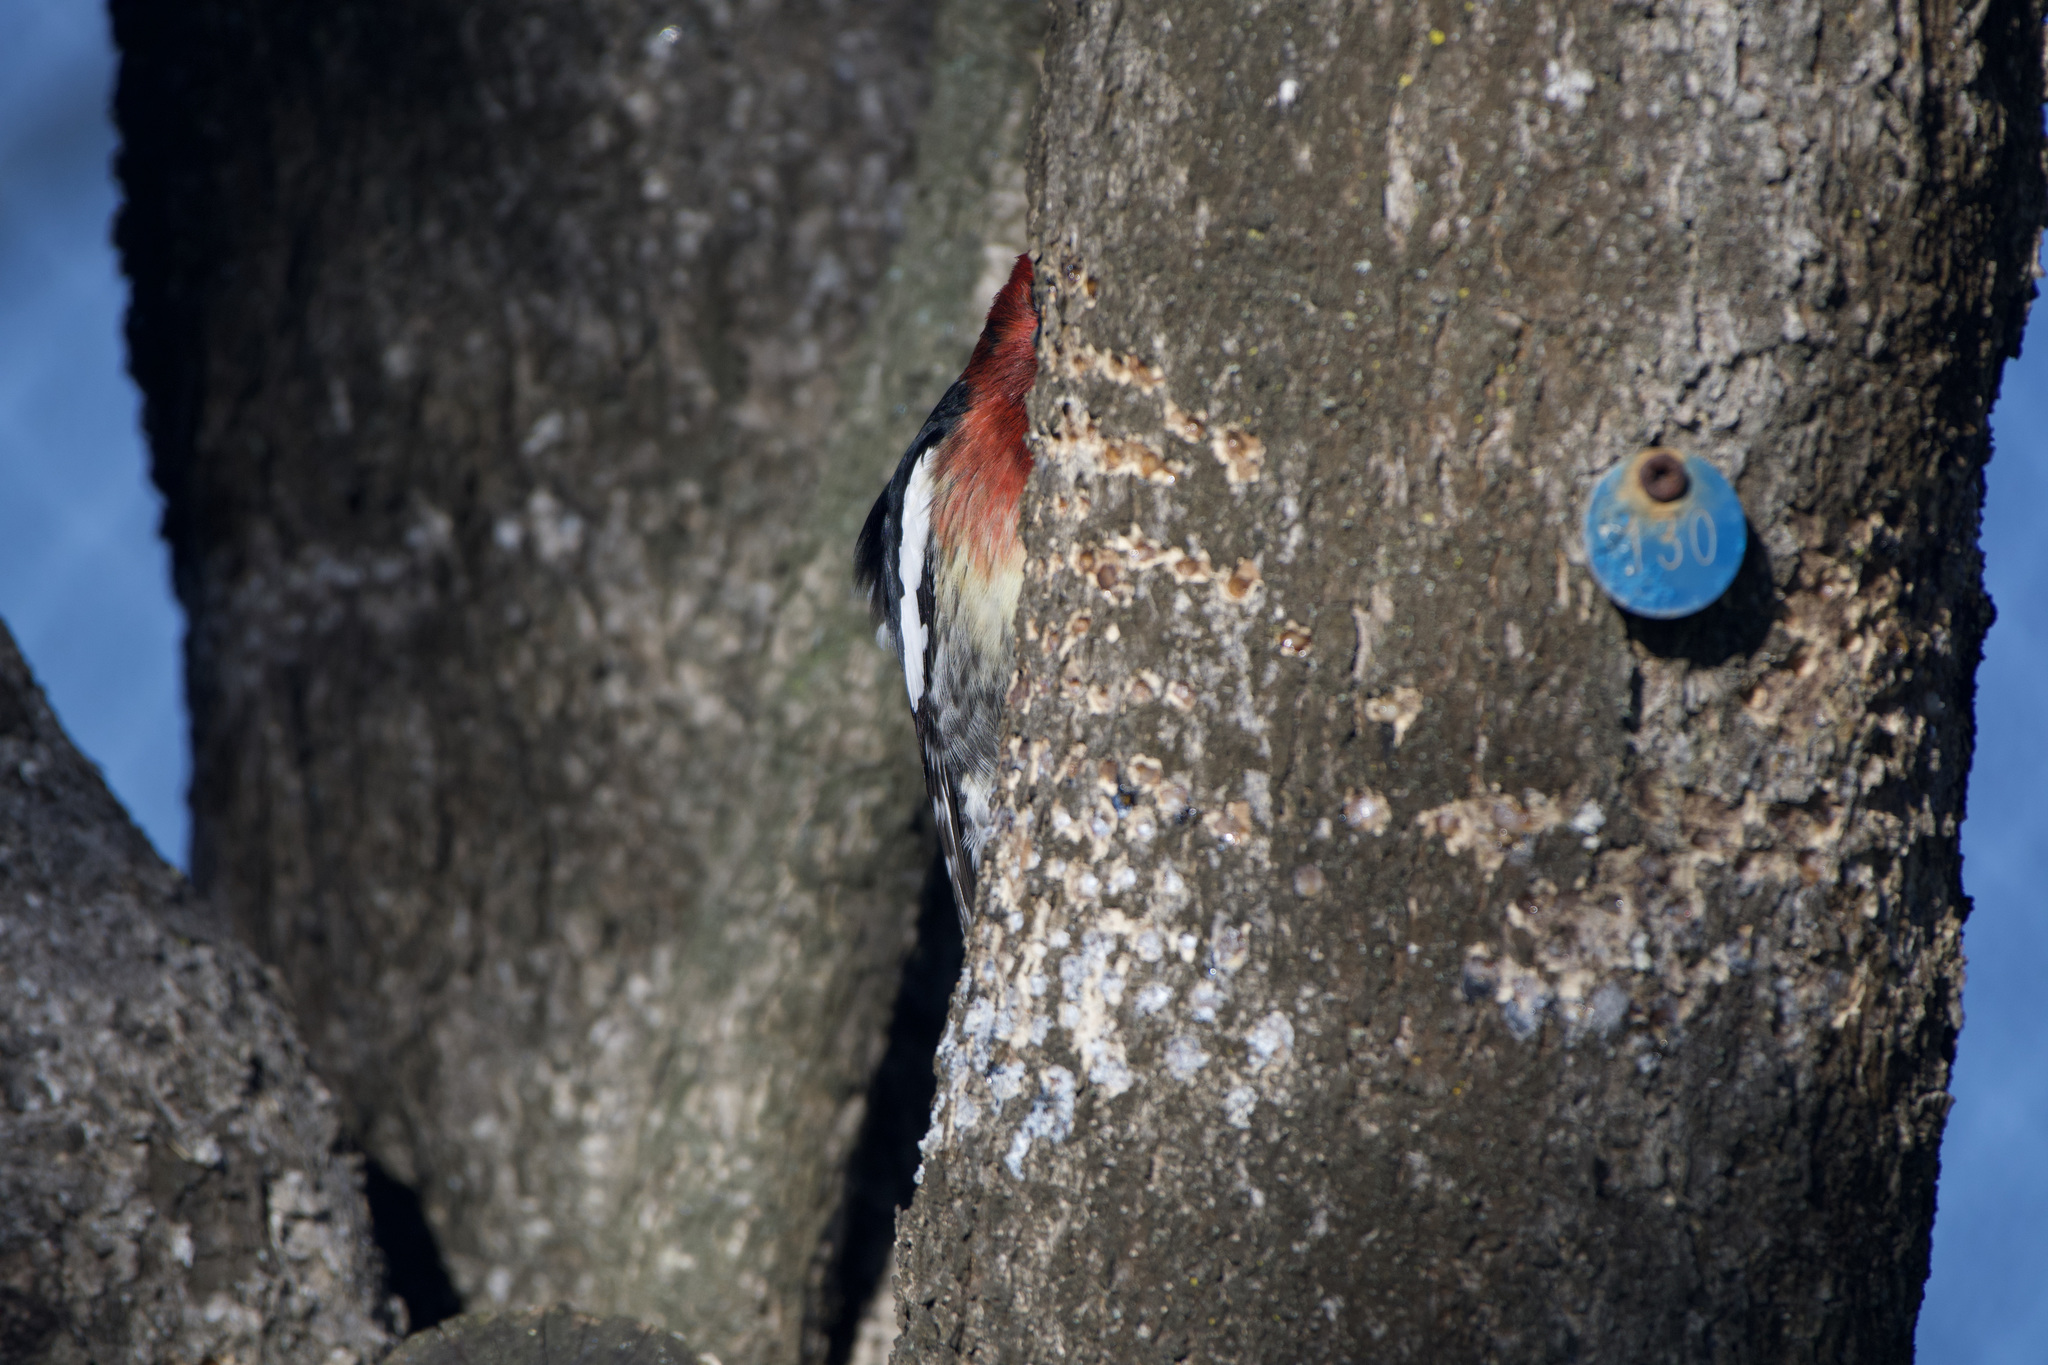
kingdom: Animalia
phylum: Chordata
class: Aves
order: Piciformes
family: Picidae
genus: Sphyrapicus
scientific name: Sphyrapicus ruber
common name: Red-breasted sapsucker
